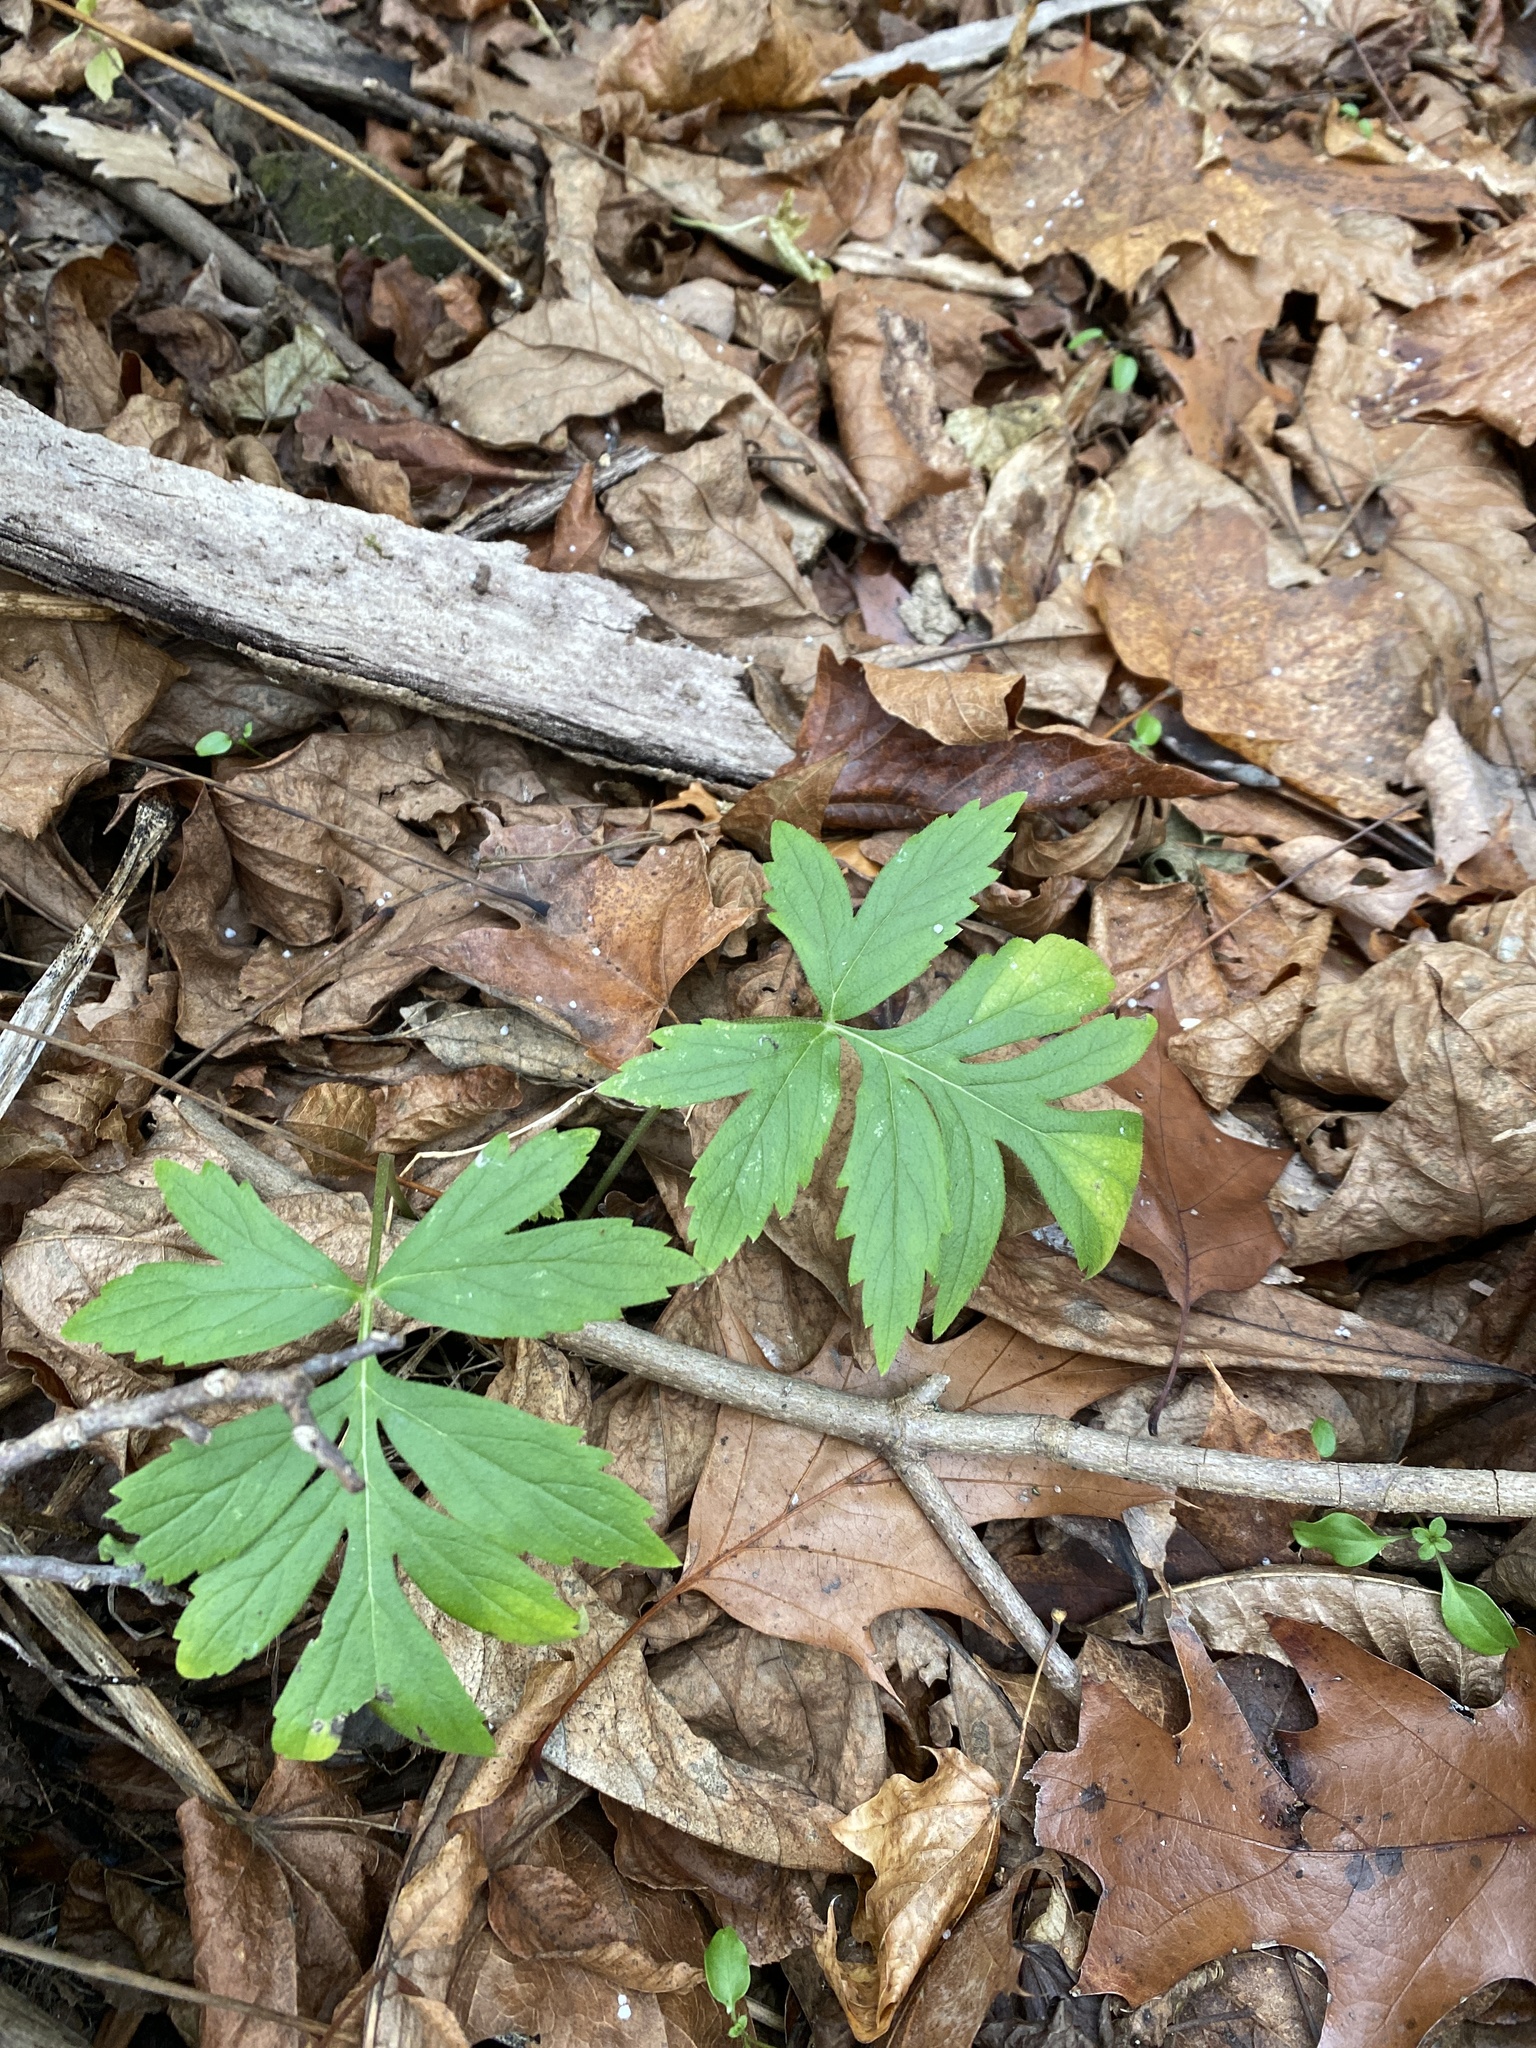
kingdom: Plantae
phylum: Tracheophyta
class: Magnoliopsida
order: Boraginales
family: Hydrophyllaceae
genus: Hydrophyllum
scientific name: Hydrophyllum virginianum
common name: Virginia waterleaf
